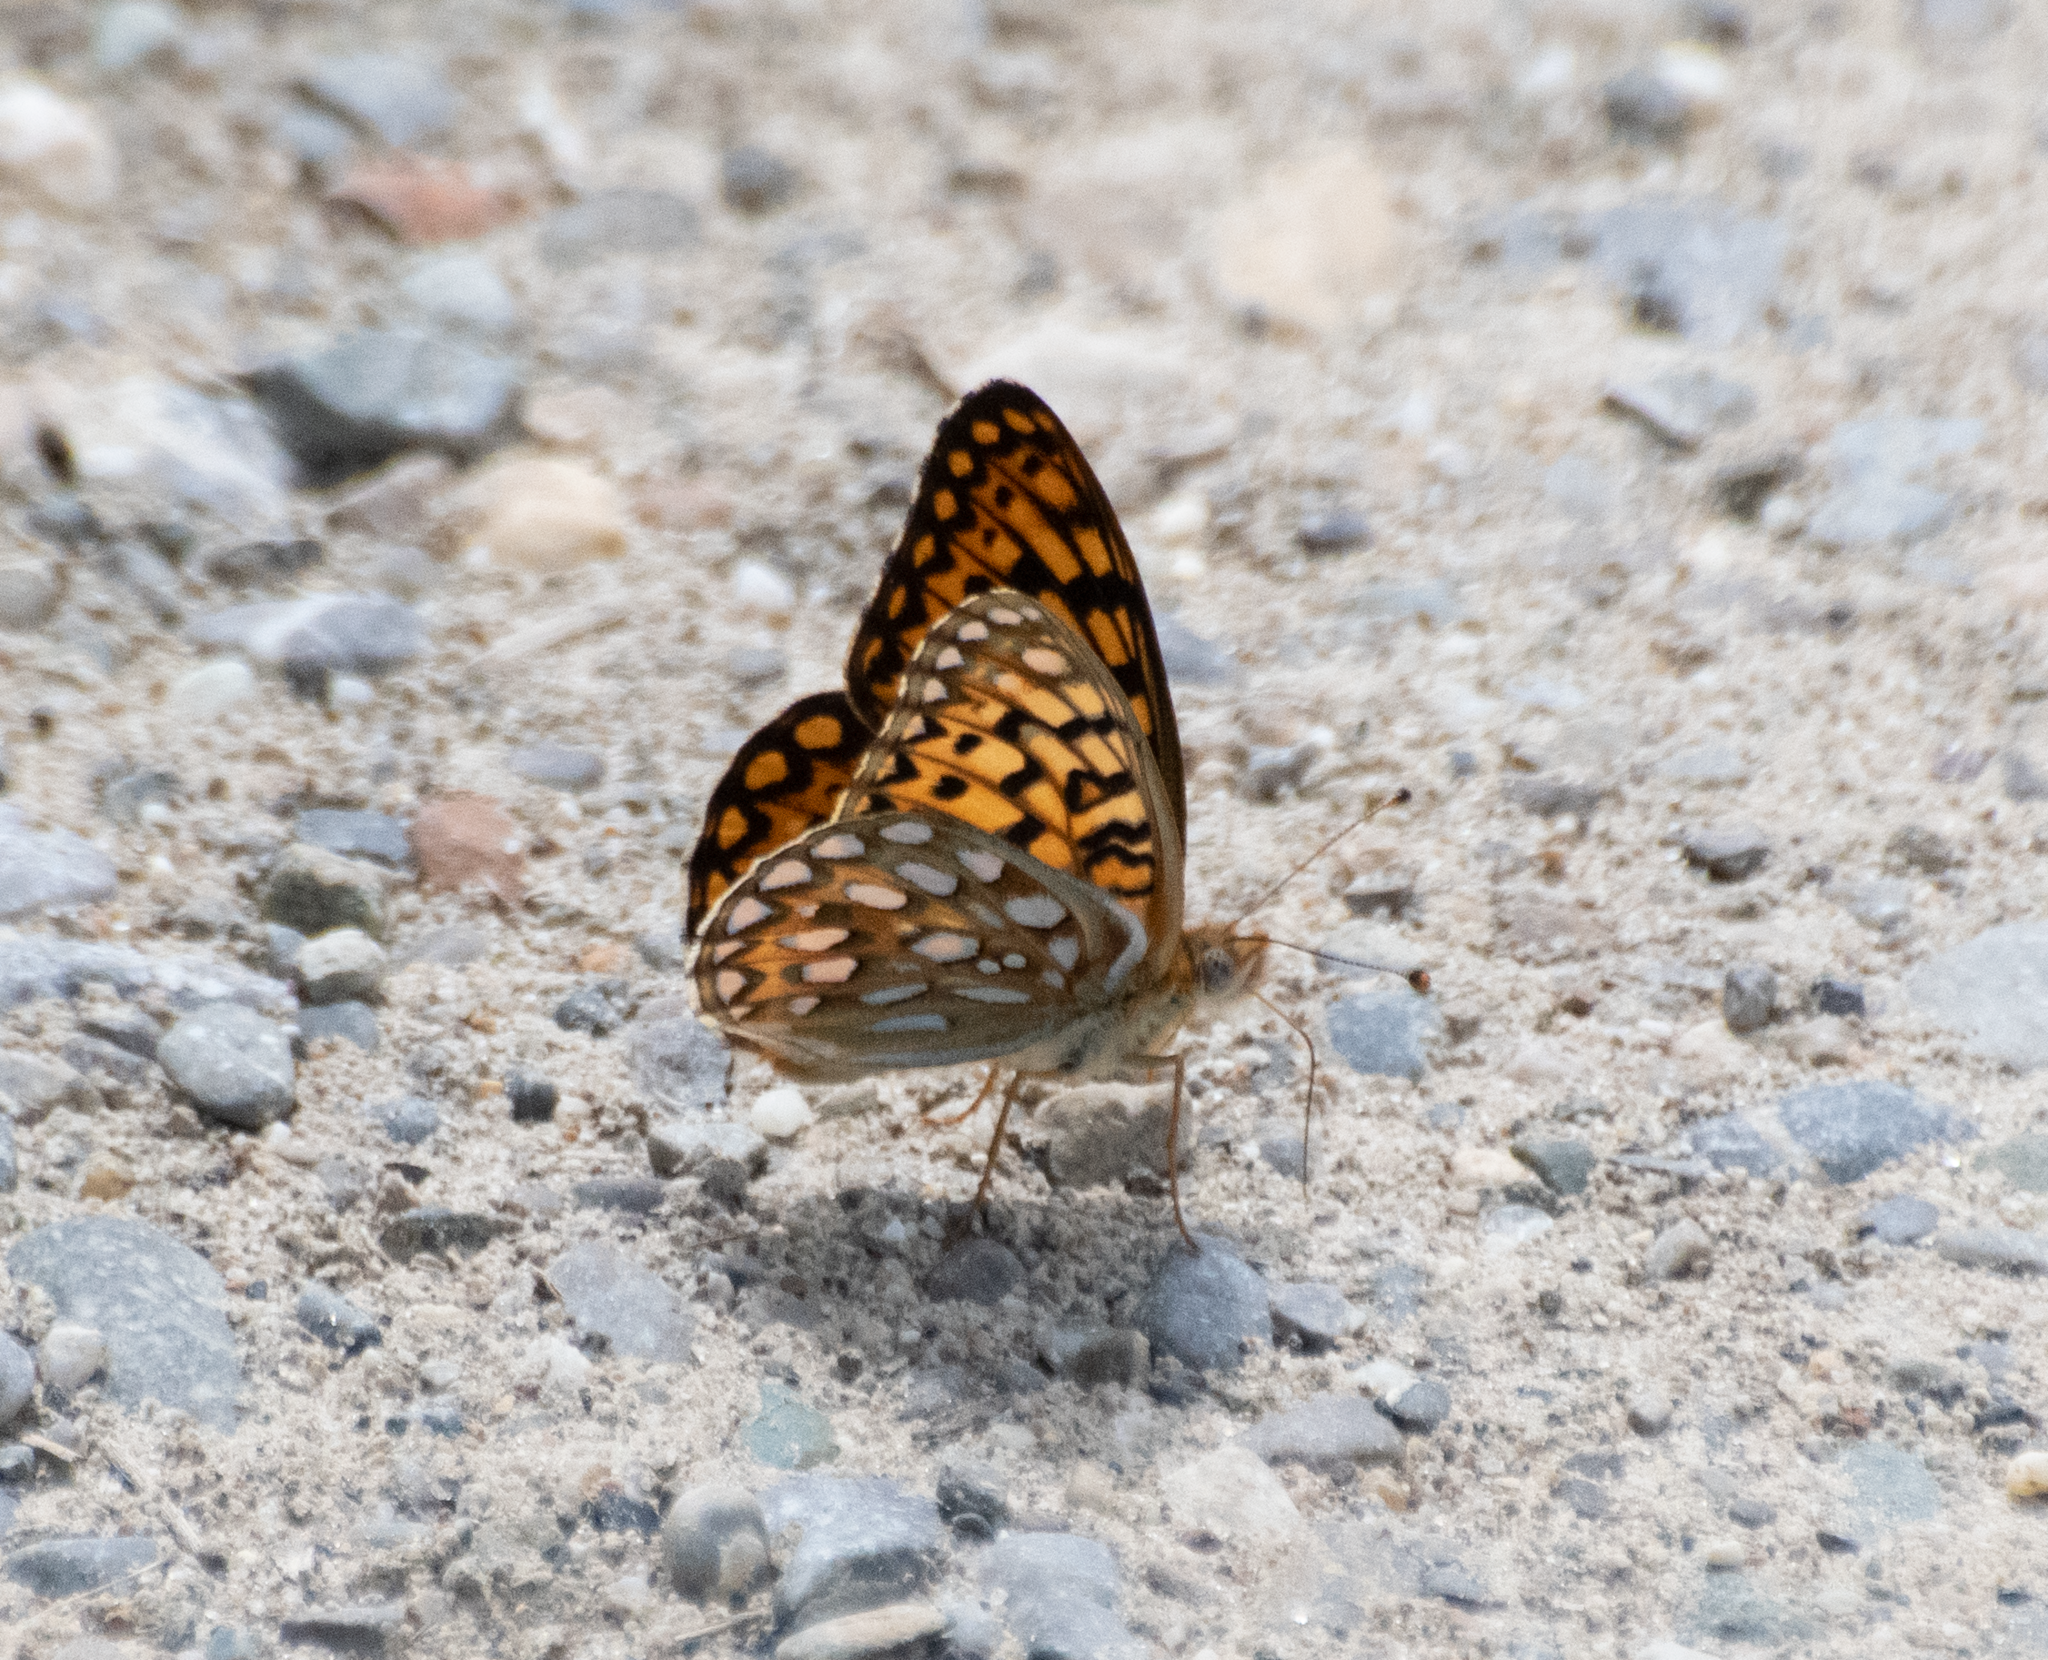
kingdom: Animalia
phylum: Arthropoda
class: Insecta
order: Lepidoptera
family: Nymphalidae
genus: Speyeria
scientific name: Speyeria callippe
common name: Callippe fritillary
